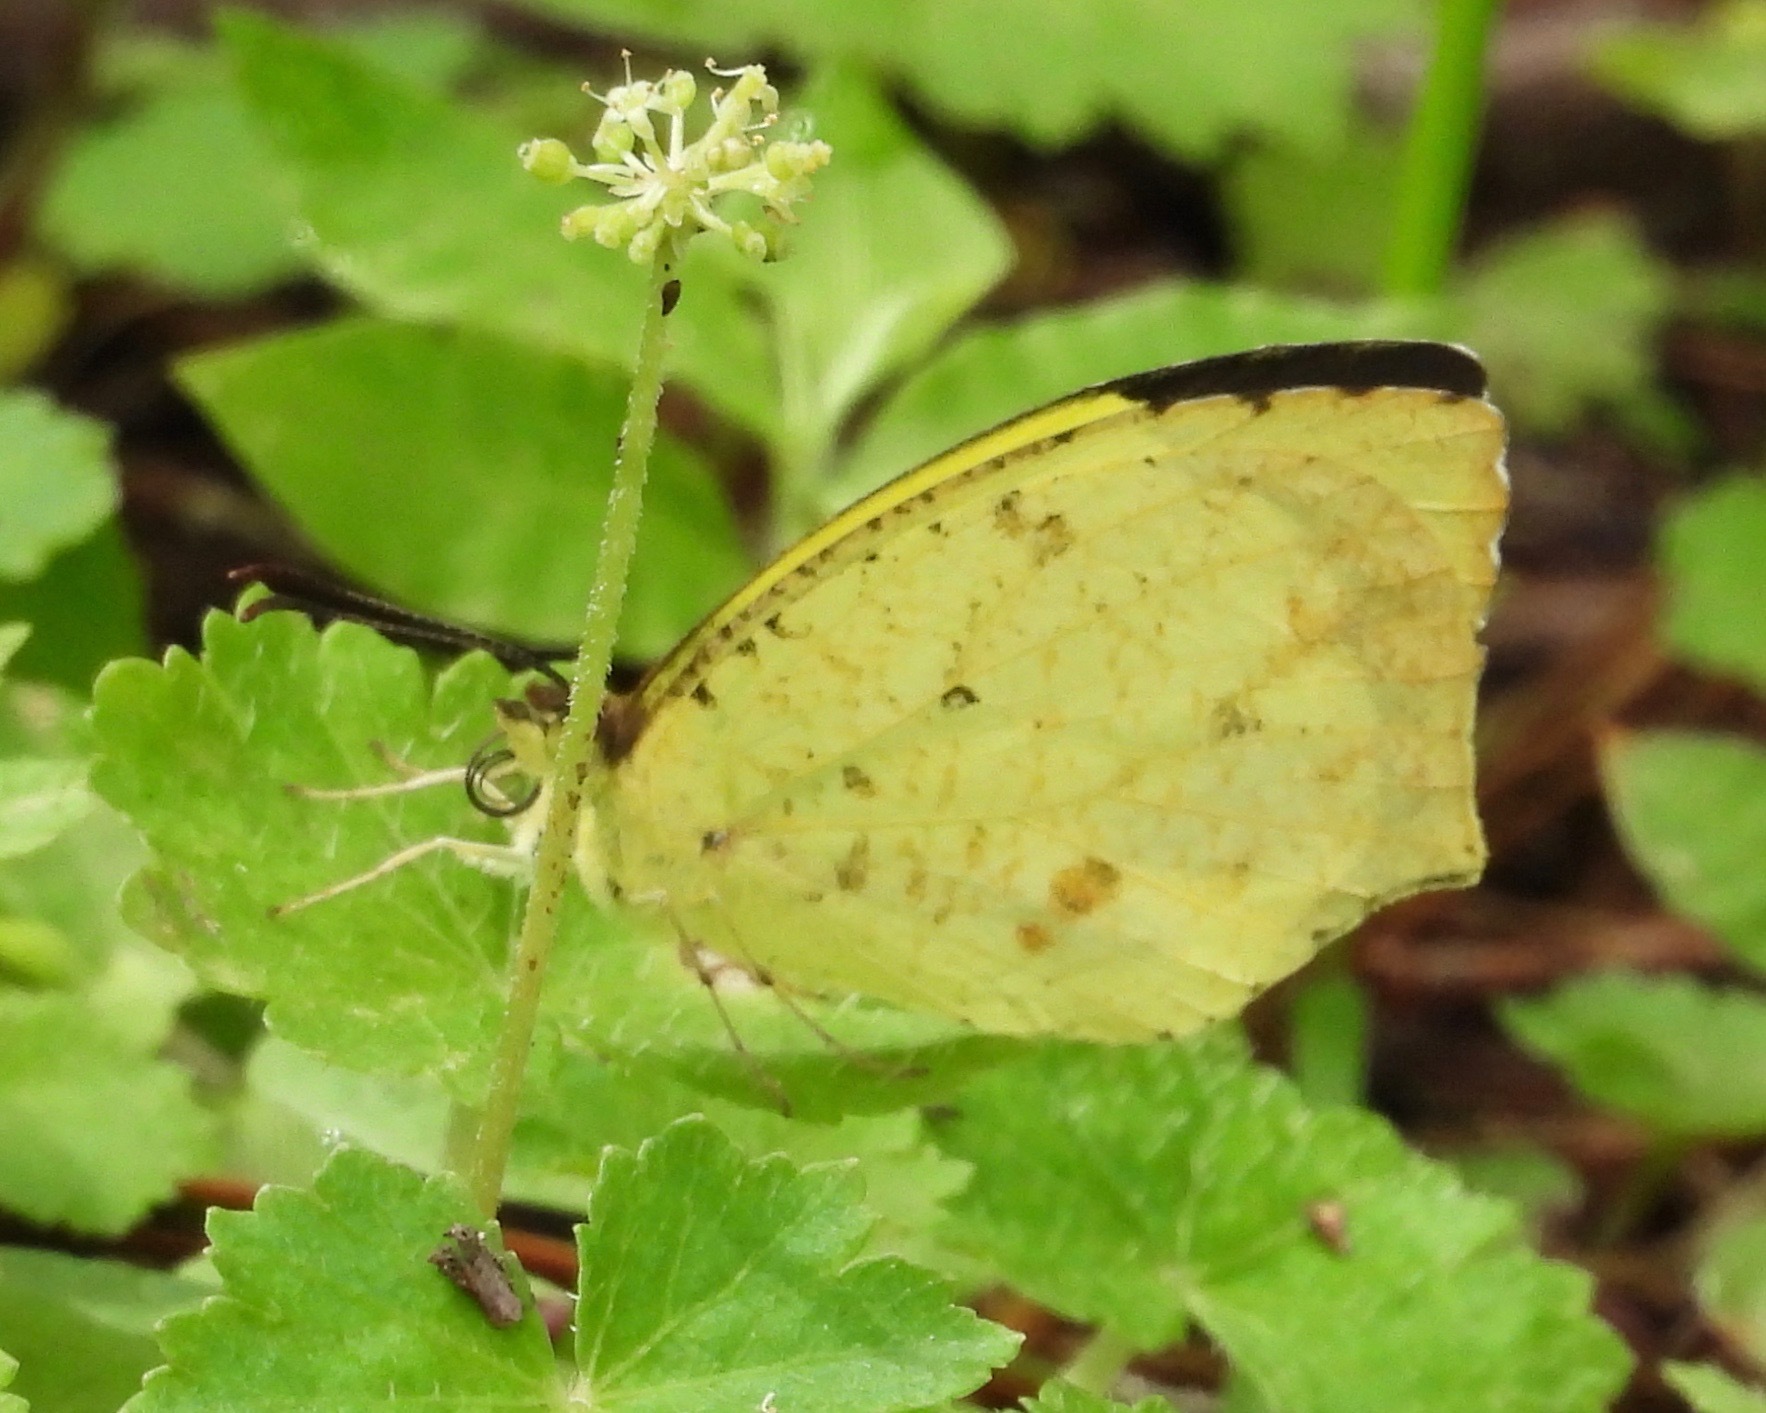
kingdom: Animalia
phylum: Arthropoda
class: Insecta
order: Lepidoptera
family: Pieridae
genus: Abaeis
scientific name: Abaeis salome
